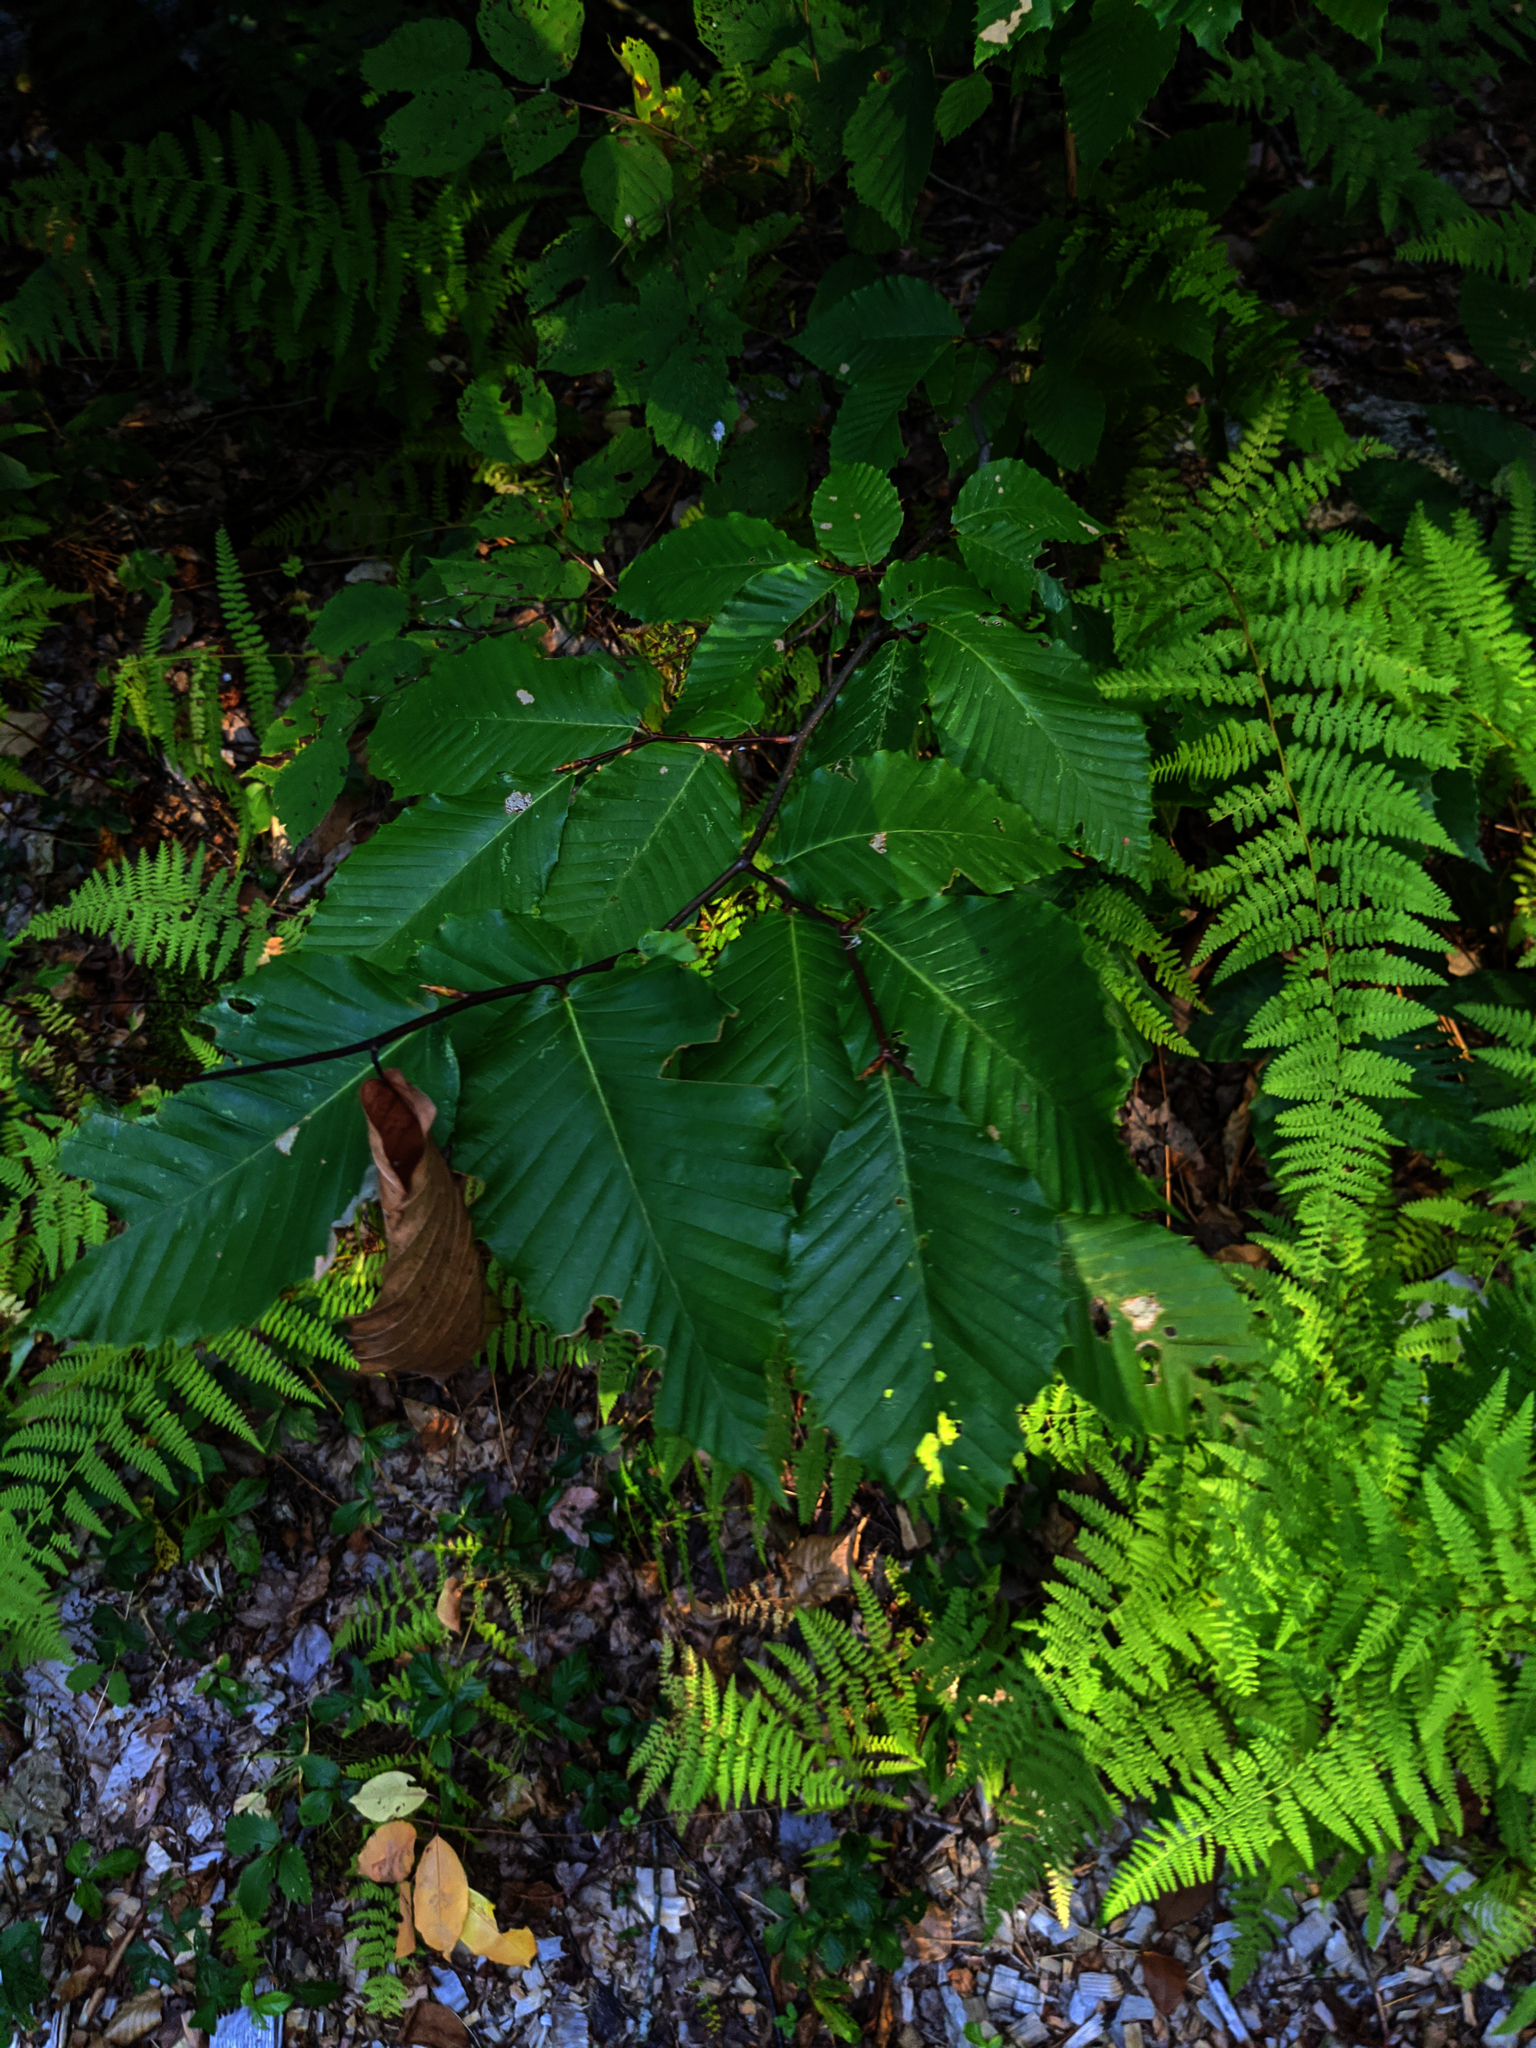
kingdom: Plantae
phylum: Tracheophyta
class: Magnoliopsida
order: Fagales
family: Fagaceae
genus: Fagus
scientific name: Fagus grandifolia
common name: American beech
